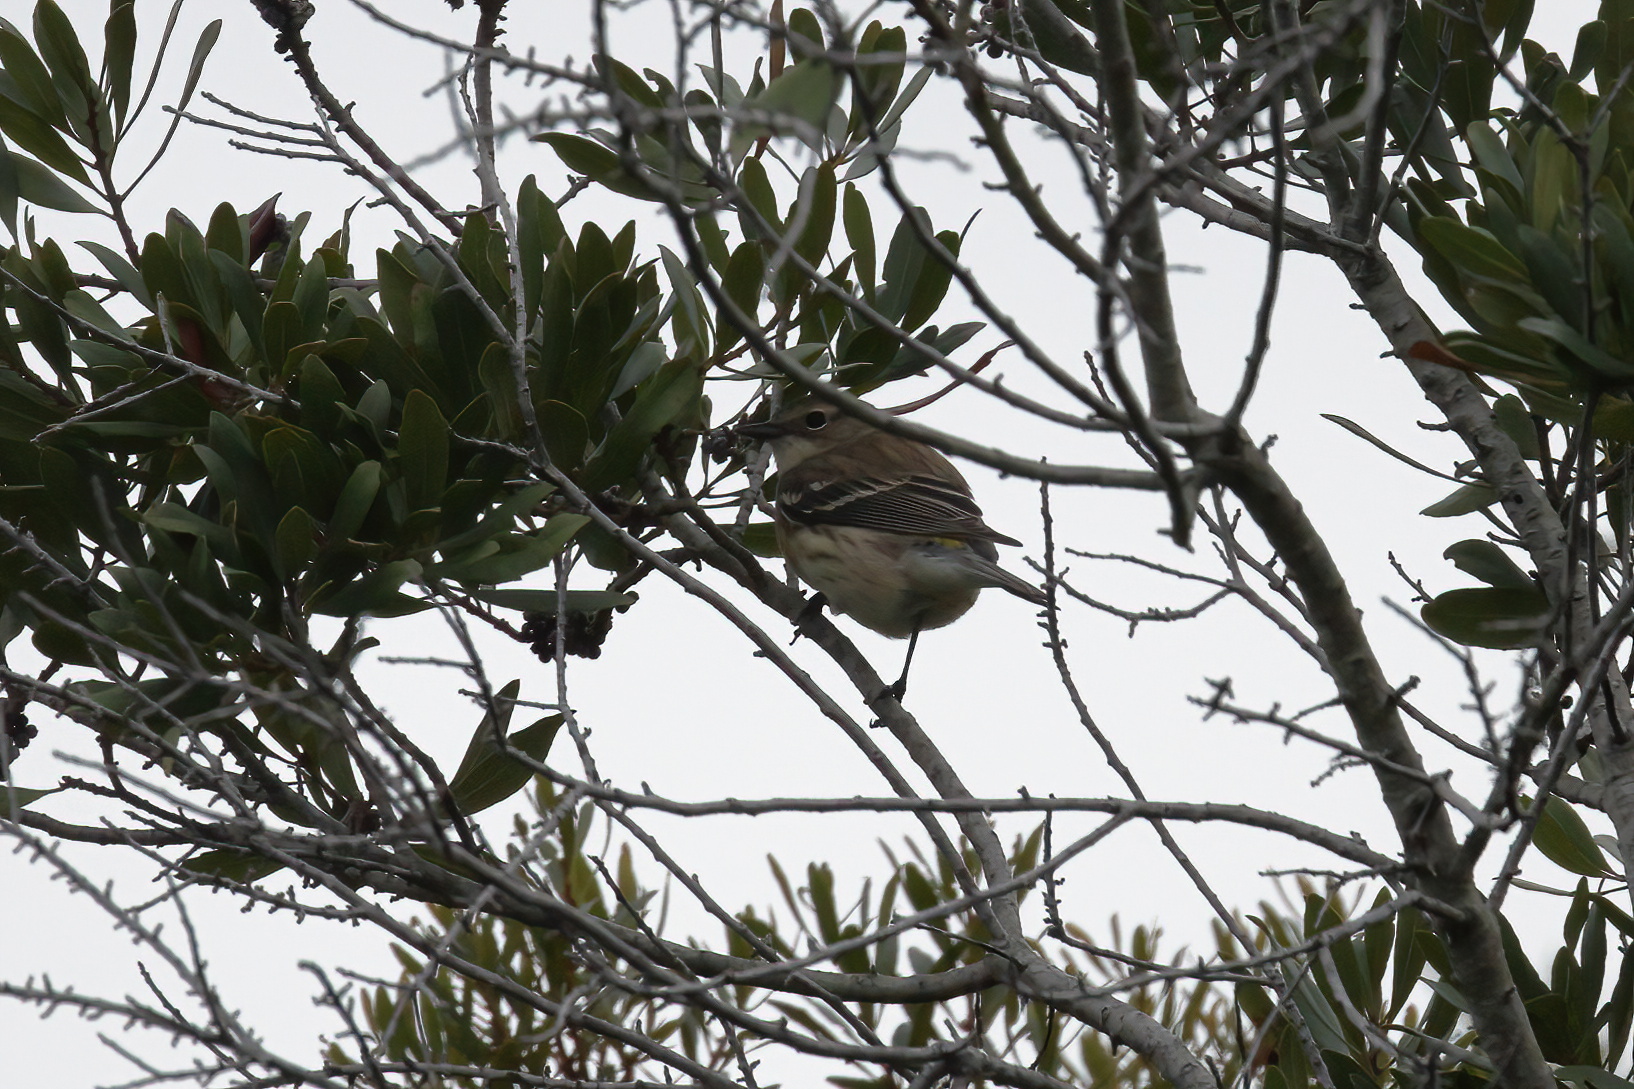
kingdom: Animalia
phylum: Chordata
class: Aves
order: Passeriformes
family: Parulidae
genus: Setophaga
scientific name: Setophaga coronata
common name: Myrtle warbler
